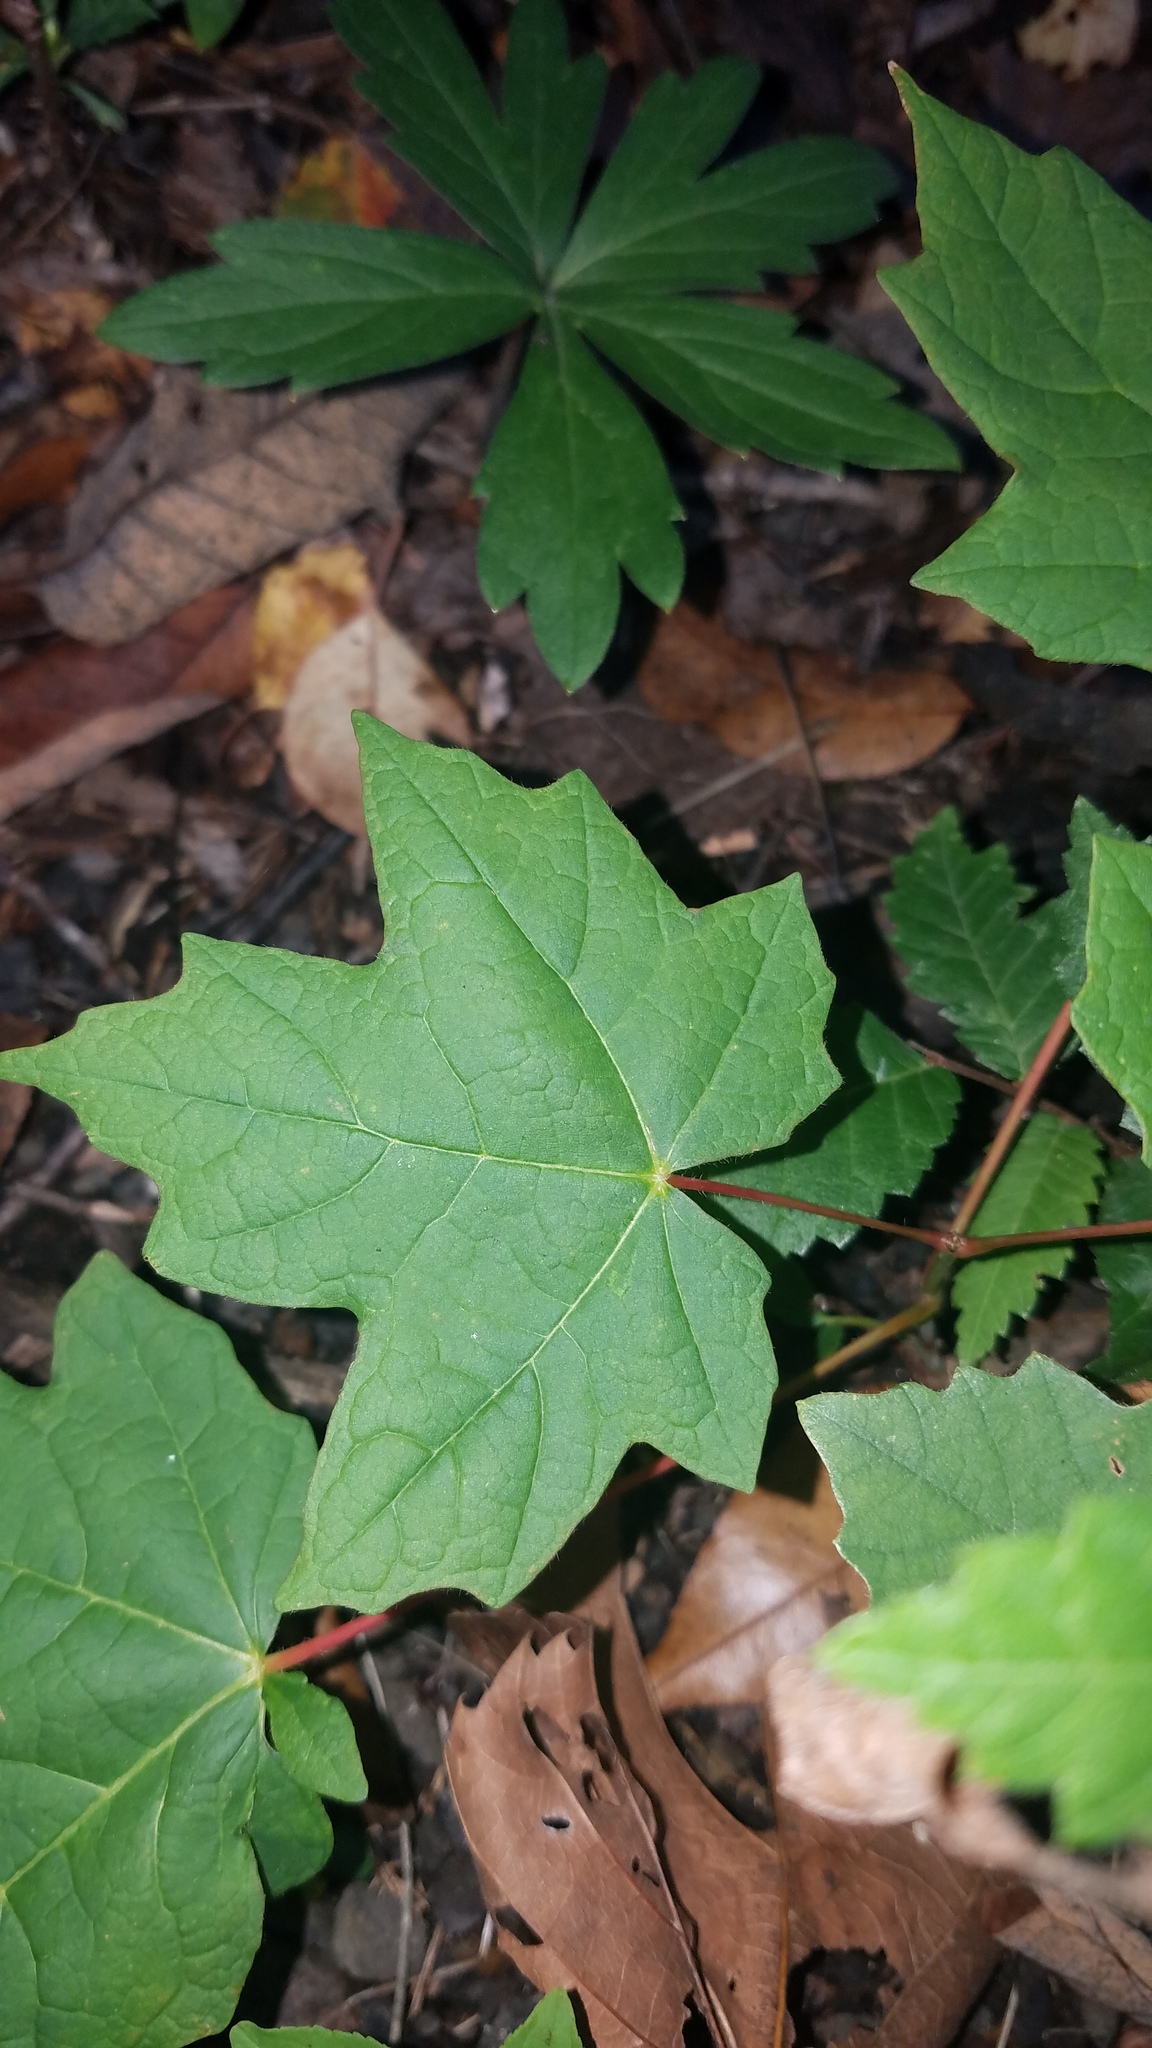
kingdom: Plantae
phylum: Tracheophyta
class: Magnoliopsida
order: Sapindales
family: Sapindaceae
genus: Acer
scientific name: Acer saccharum
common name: Sugar maple
